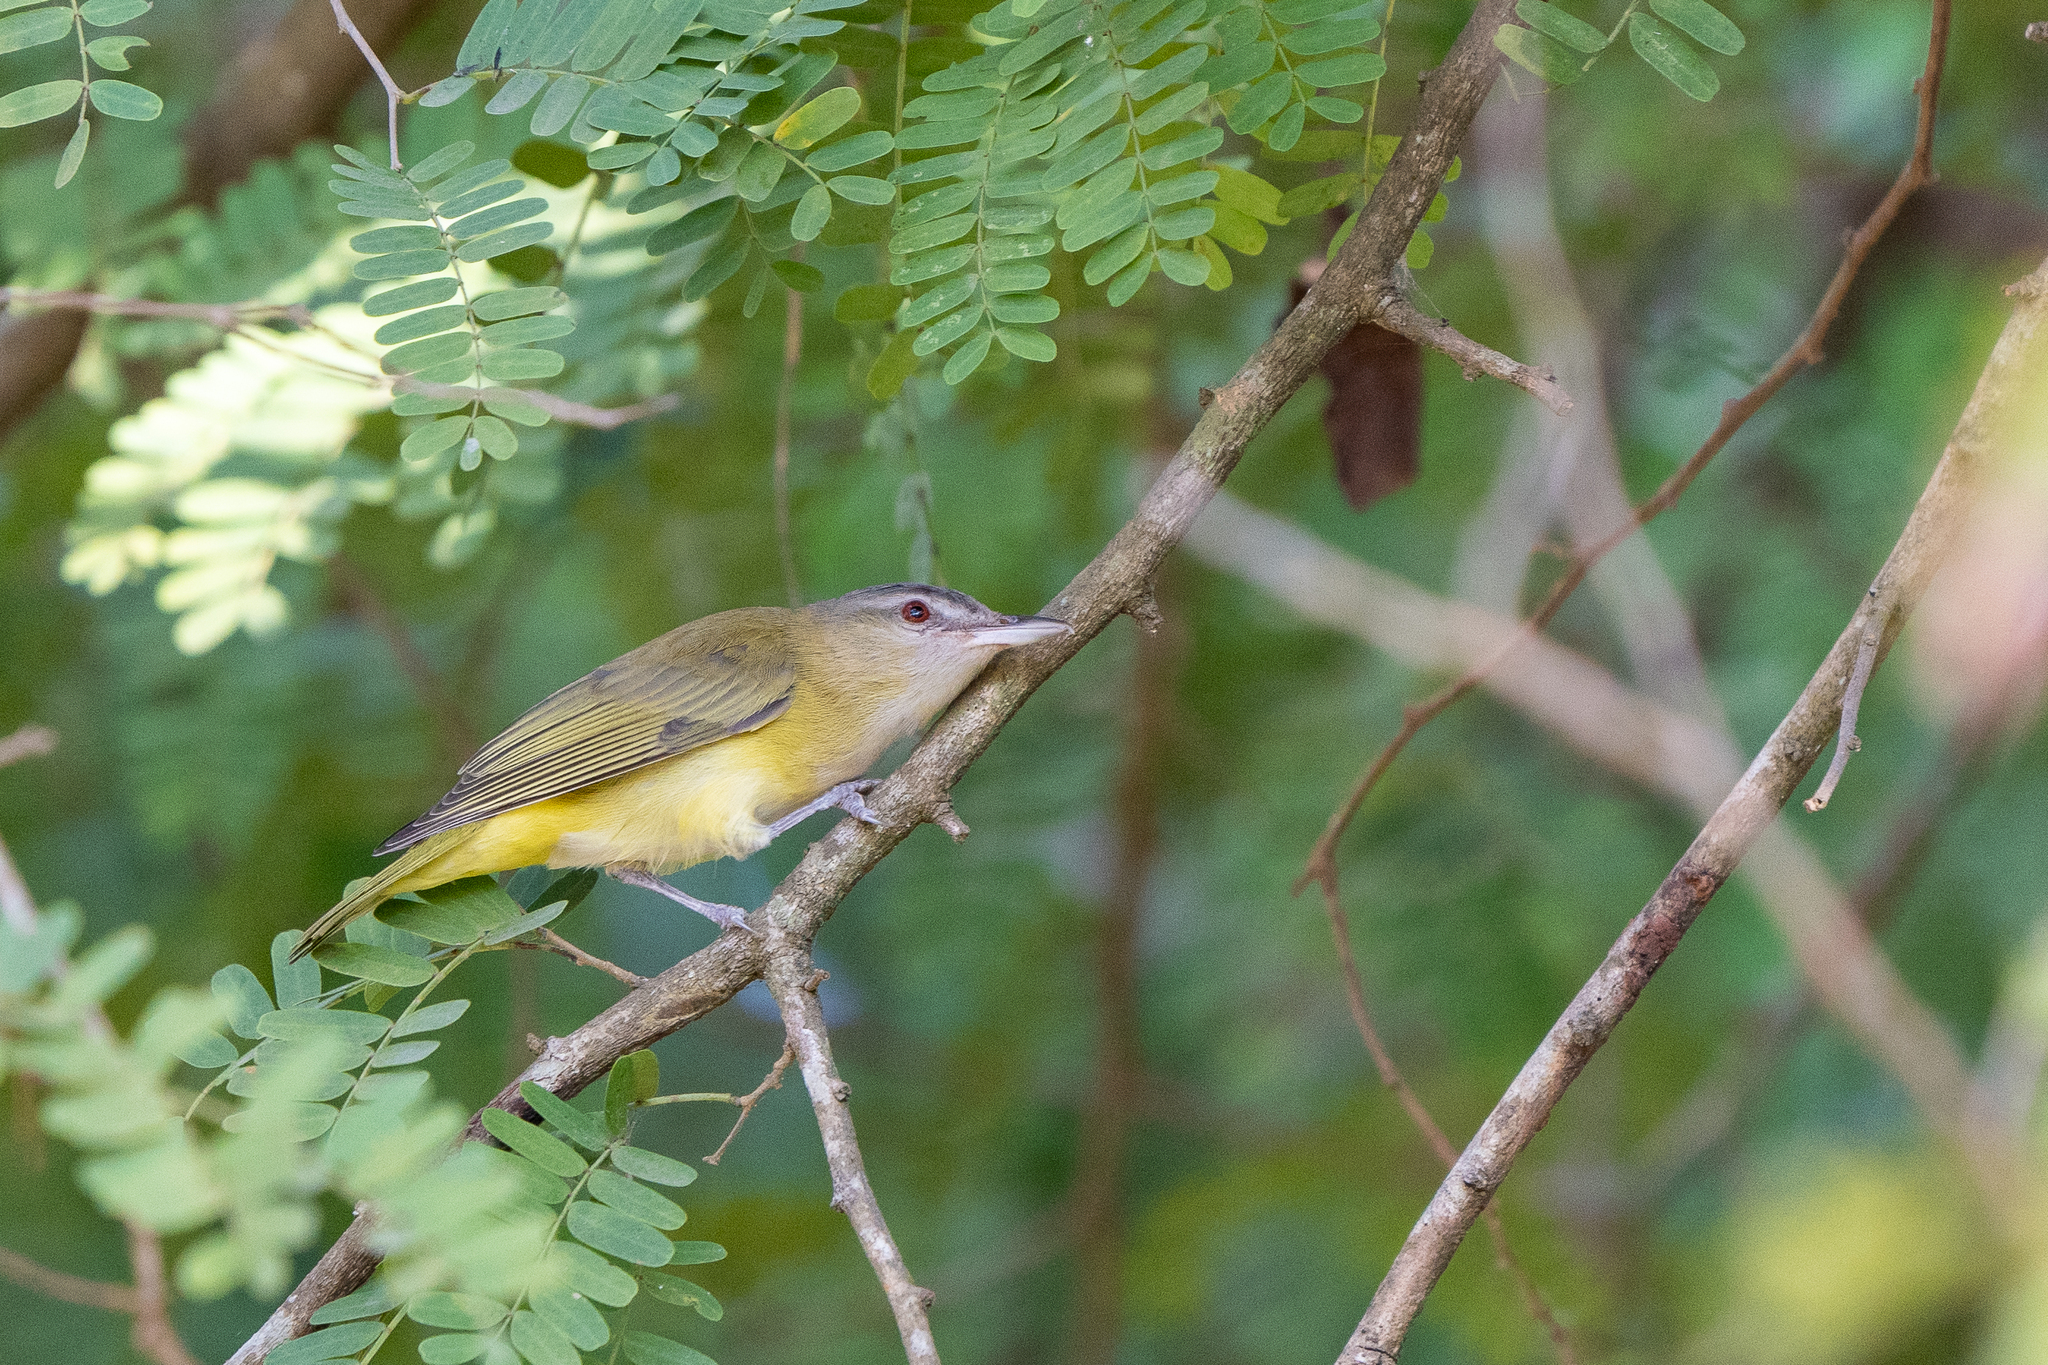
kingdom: Animalia
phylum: Chordata
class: Aves
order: Passeriformes
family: Vireonidae
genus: Vireo
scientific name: Vireo flavoviridis
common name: Yellow-green vireo
